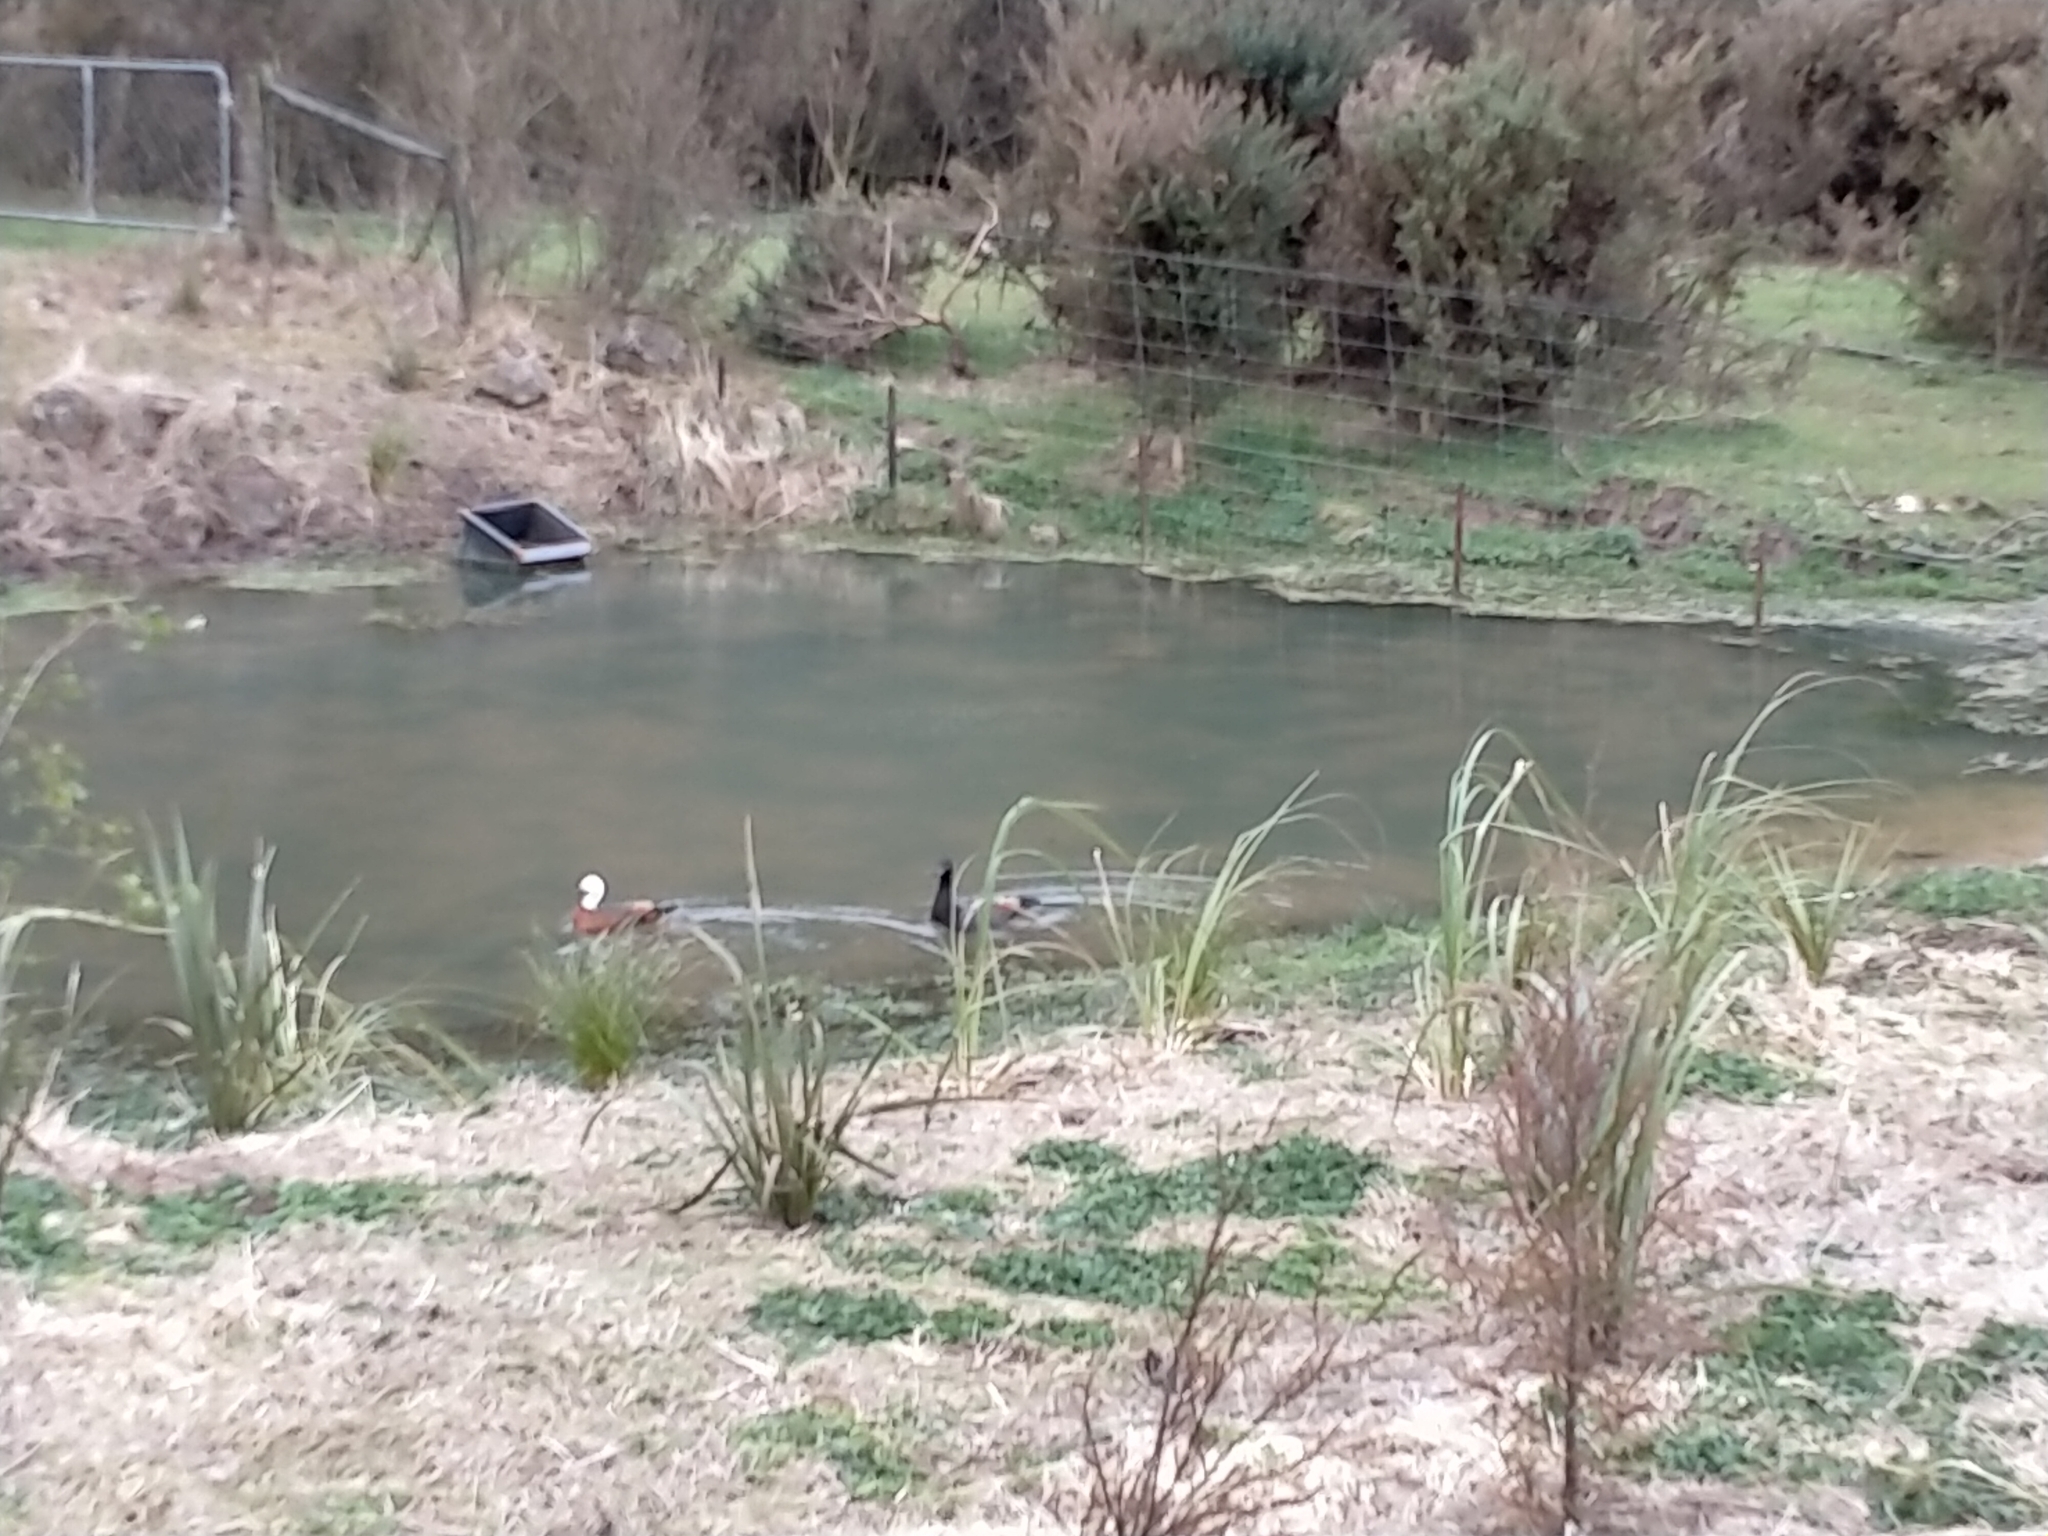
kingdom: Animalia
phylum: Chordata
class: Aves
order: Anseriformes
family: Anatidae
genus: Tadorna
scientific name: Tadorna variegata
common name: Paradise shelduck
